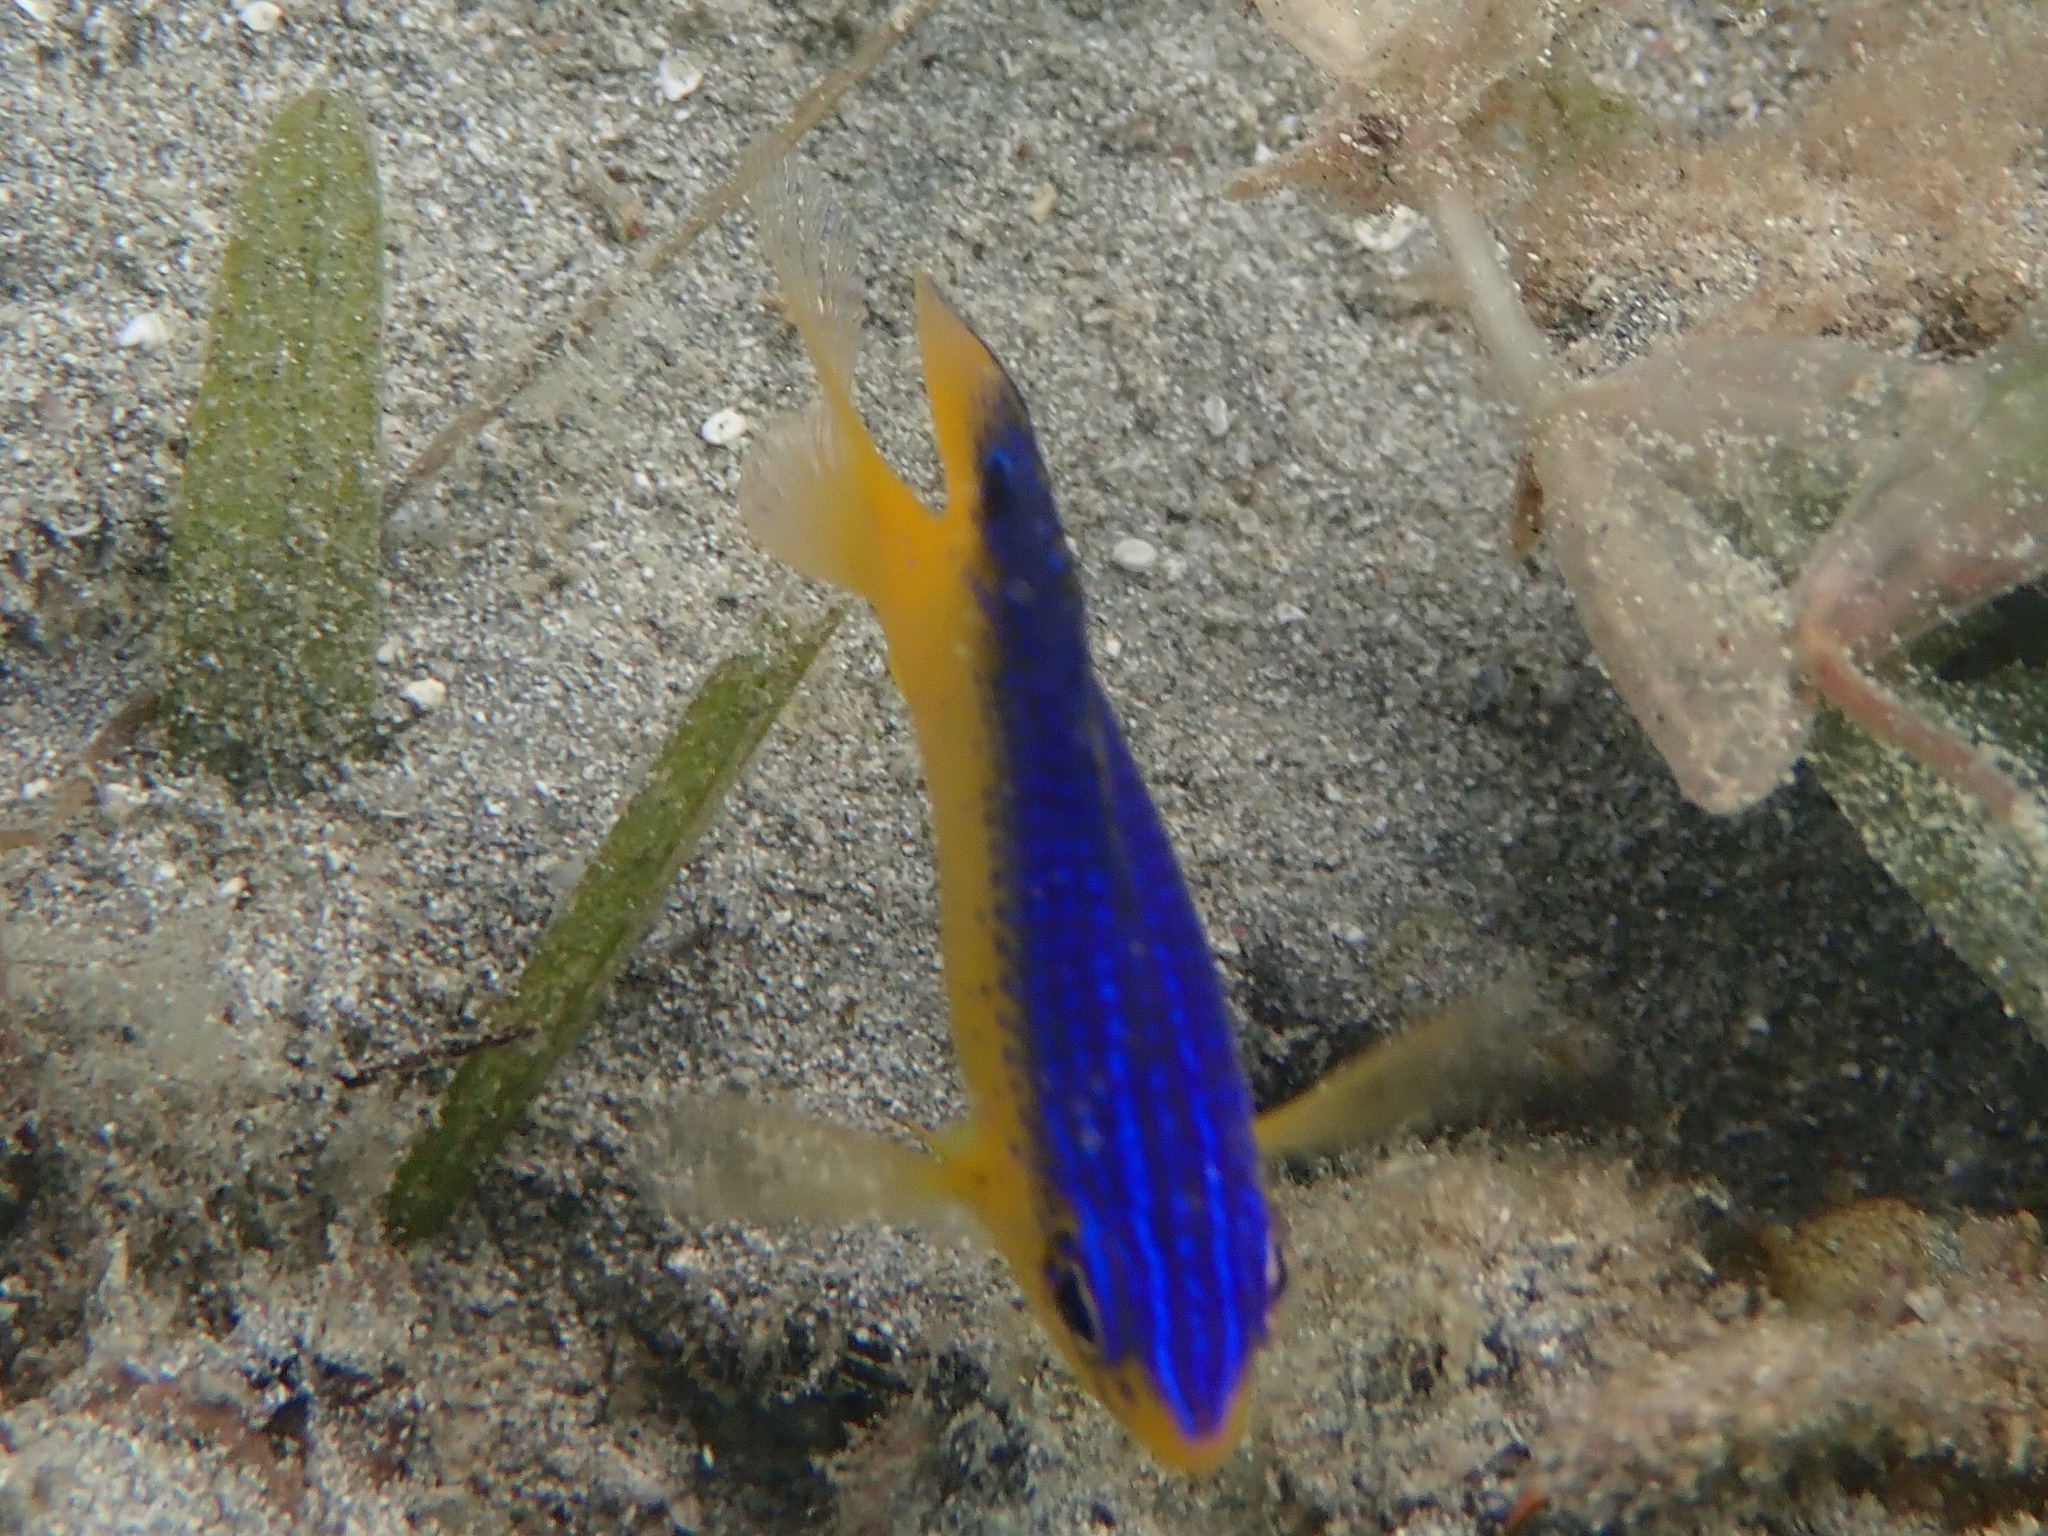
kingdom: Animalia
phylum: Chordata
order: Perciformes
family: Pomacentridae
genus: Stegastes
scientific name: Stegastes leucostictus
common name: Beaugregory
